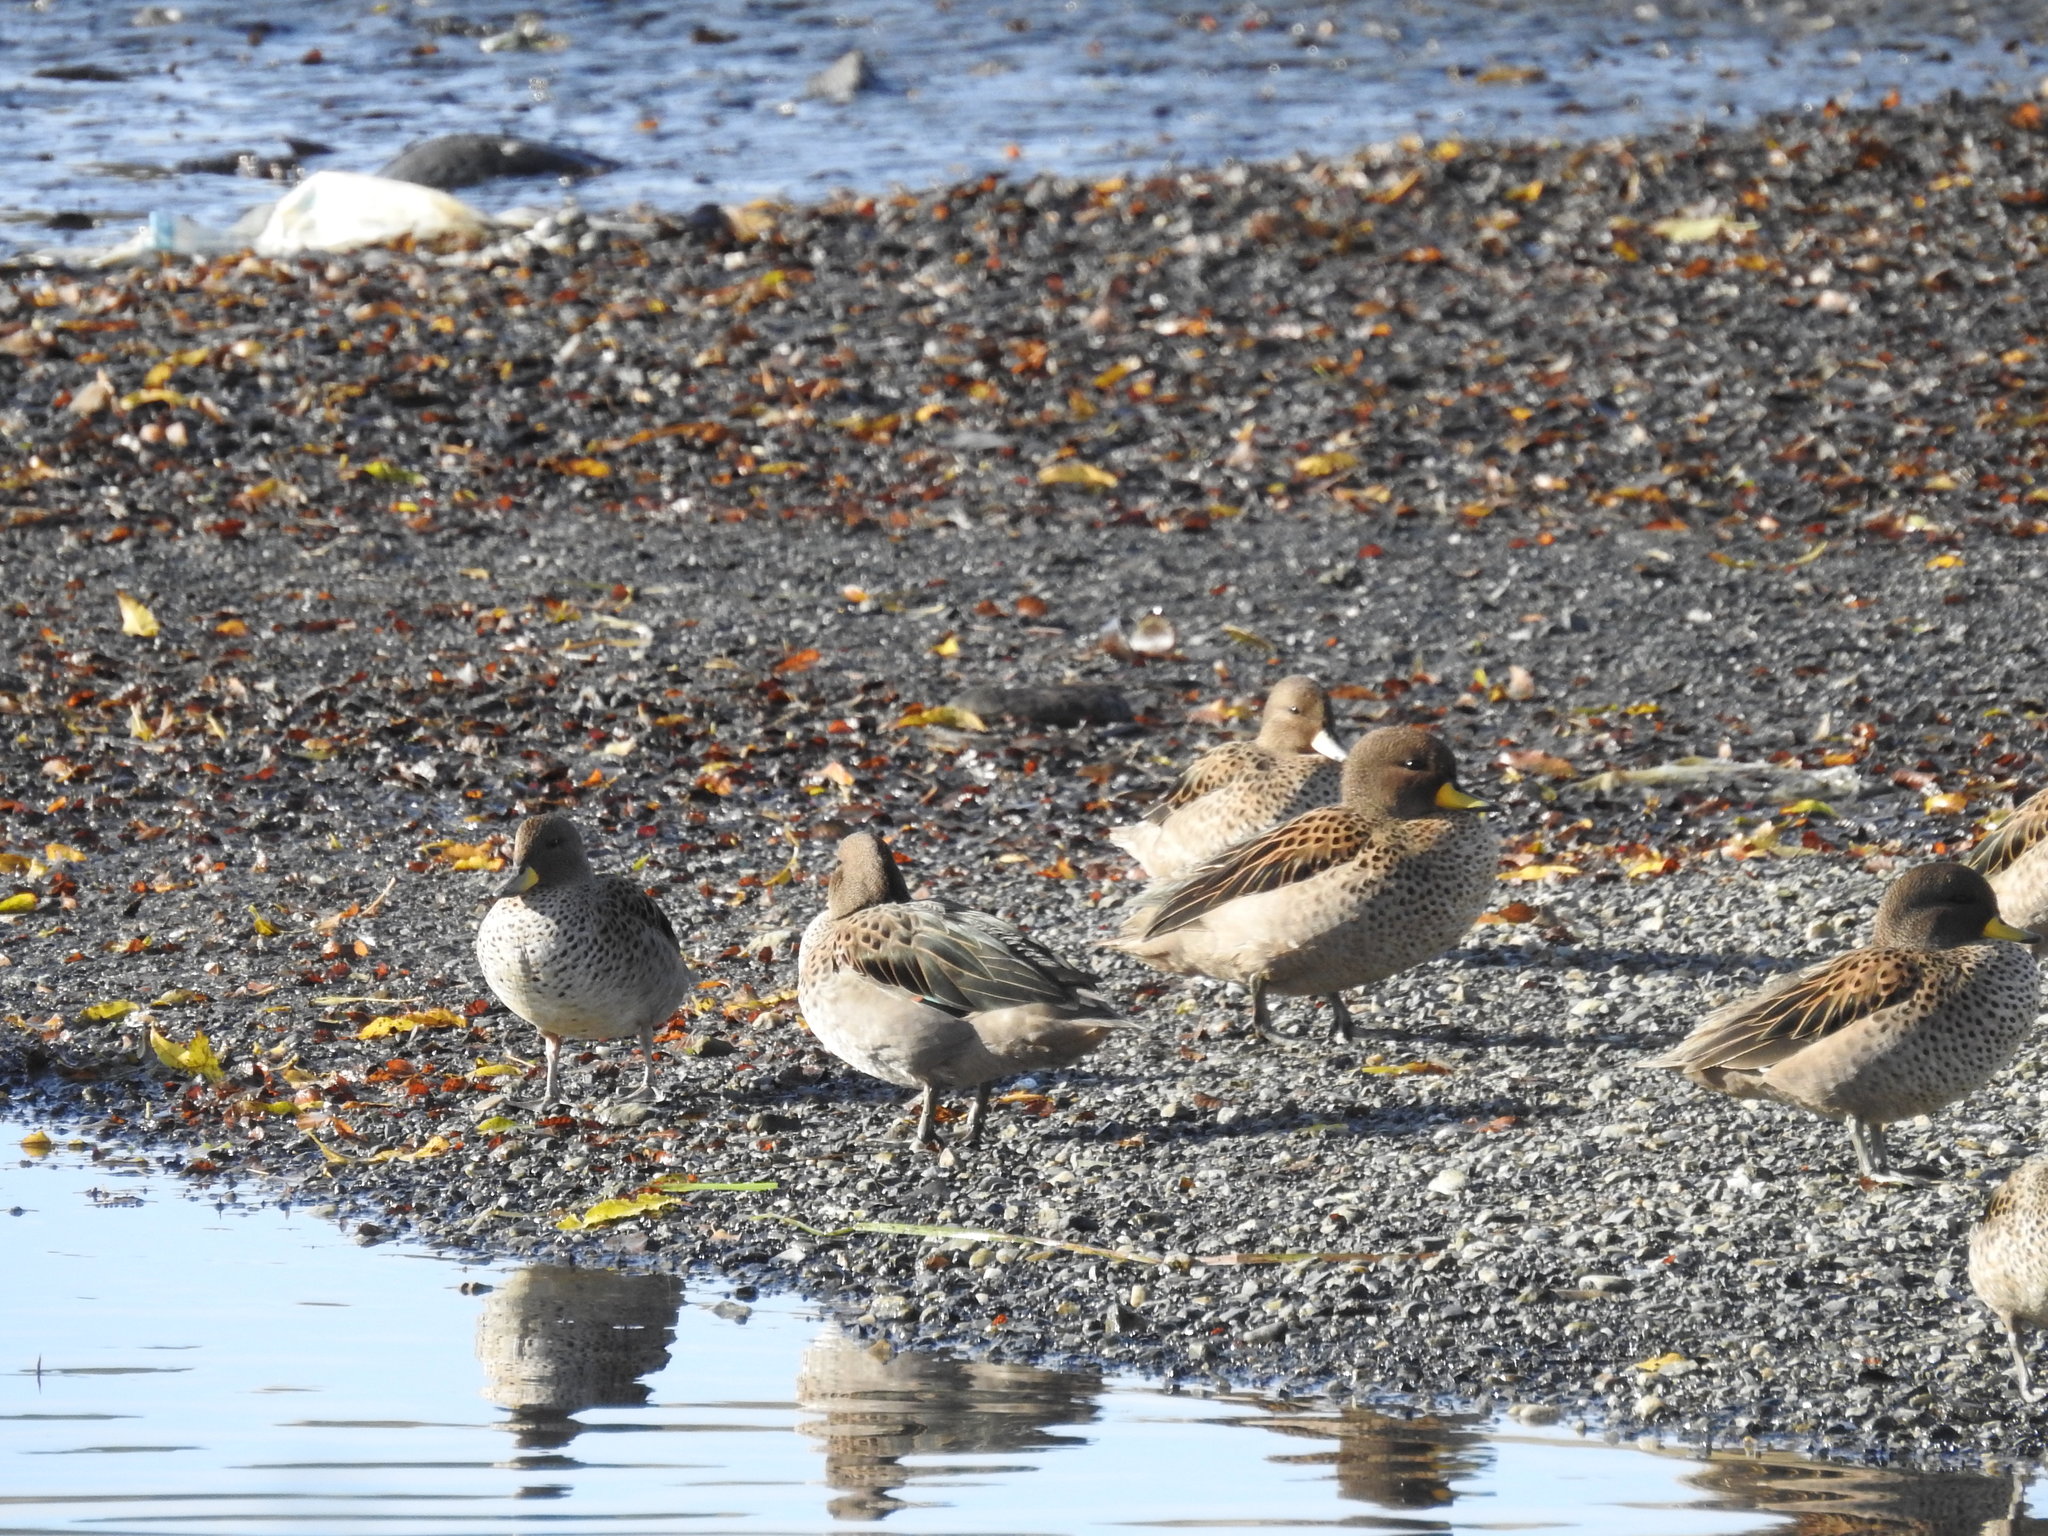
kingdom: Animalia
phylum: Chordata
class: Aves
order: Anseriformes
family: Anatidae
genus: Anas
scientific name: Anas flavirostris
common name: Yellow-billed teal
